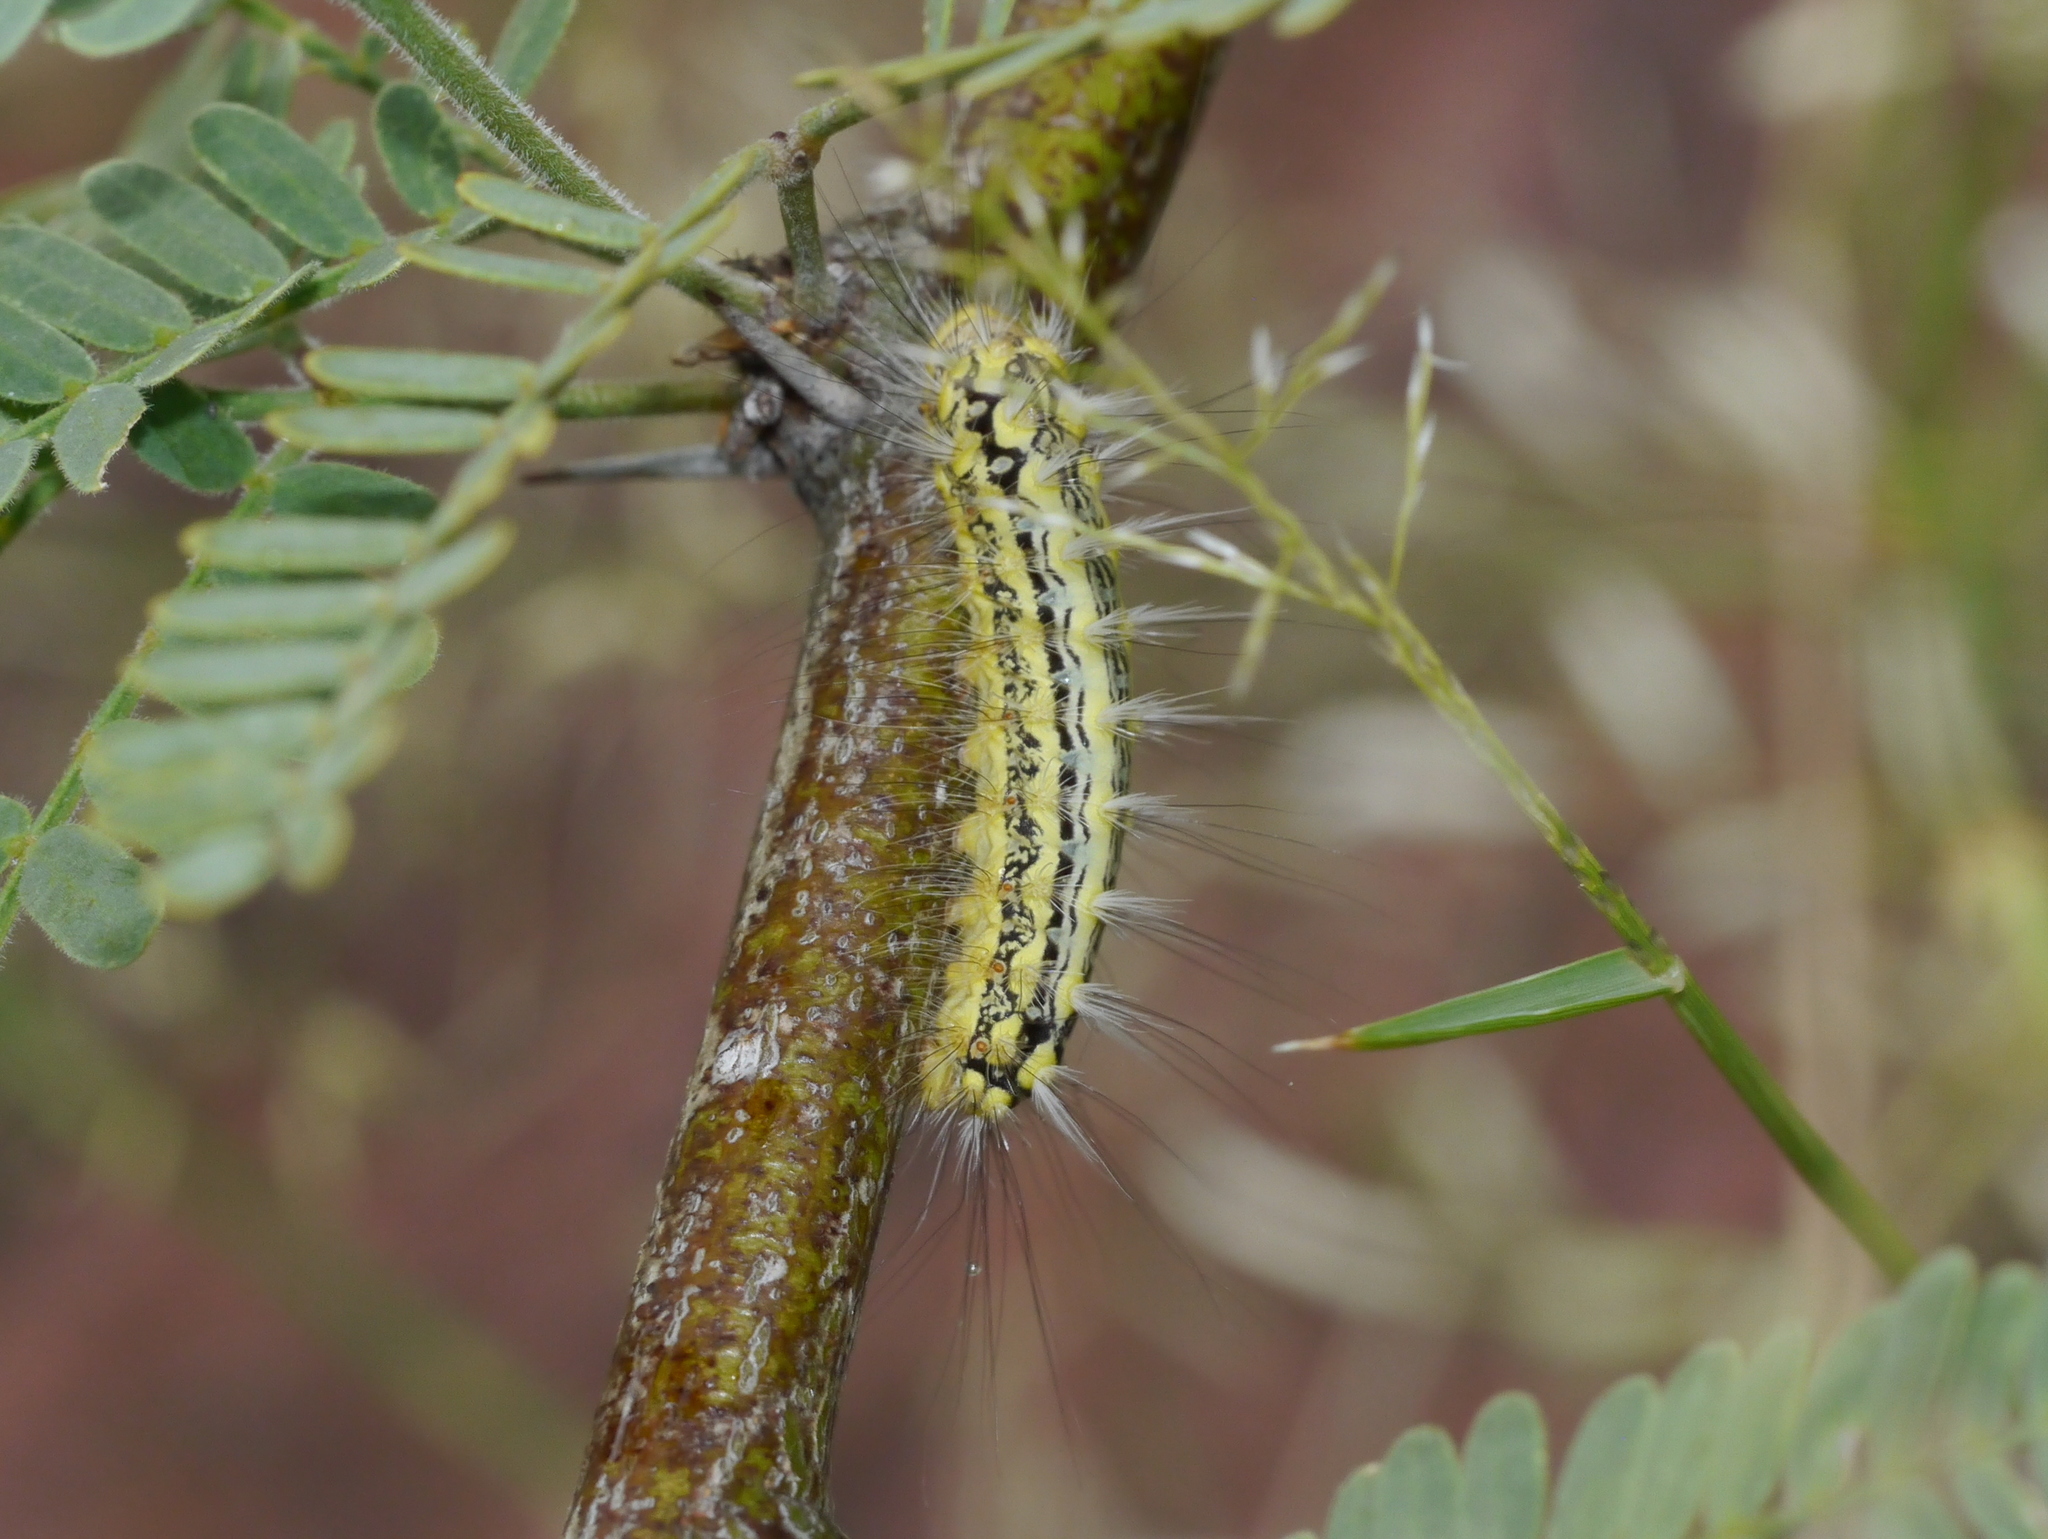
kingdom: Animalia
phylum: Arthropoda
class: Insecta
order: Lepidoptera
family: Megalopygidae
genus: Norape
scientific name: Norape tener
